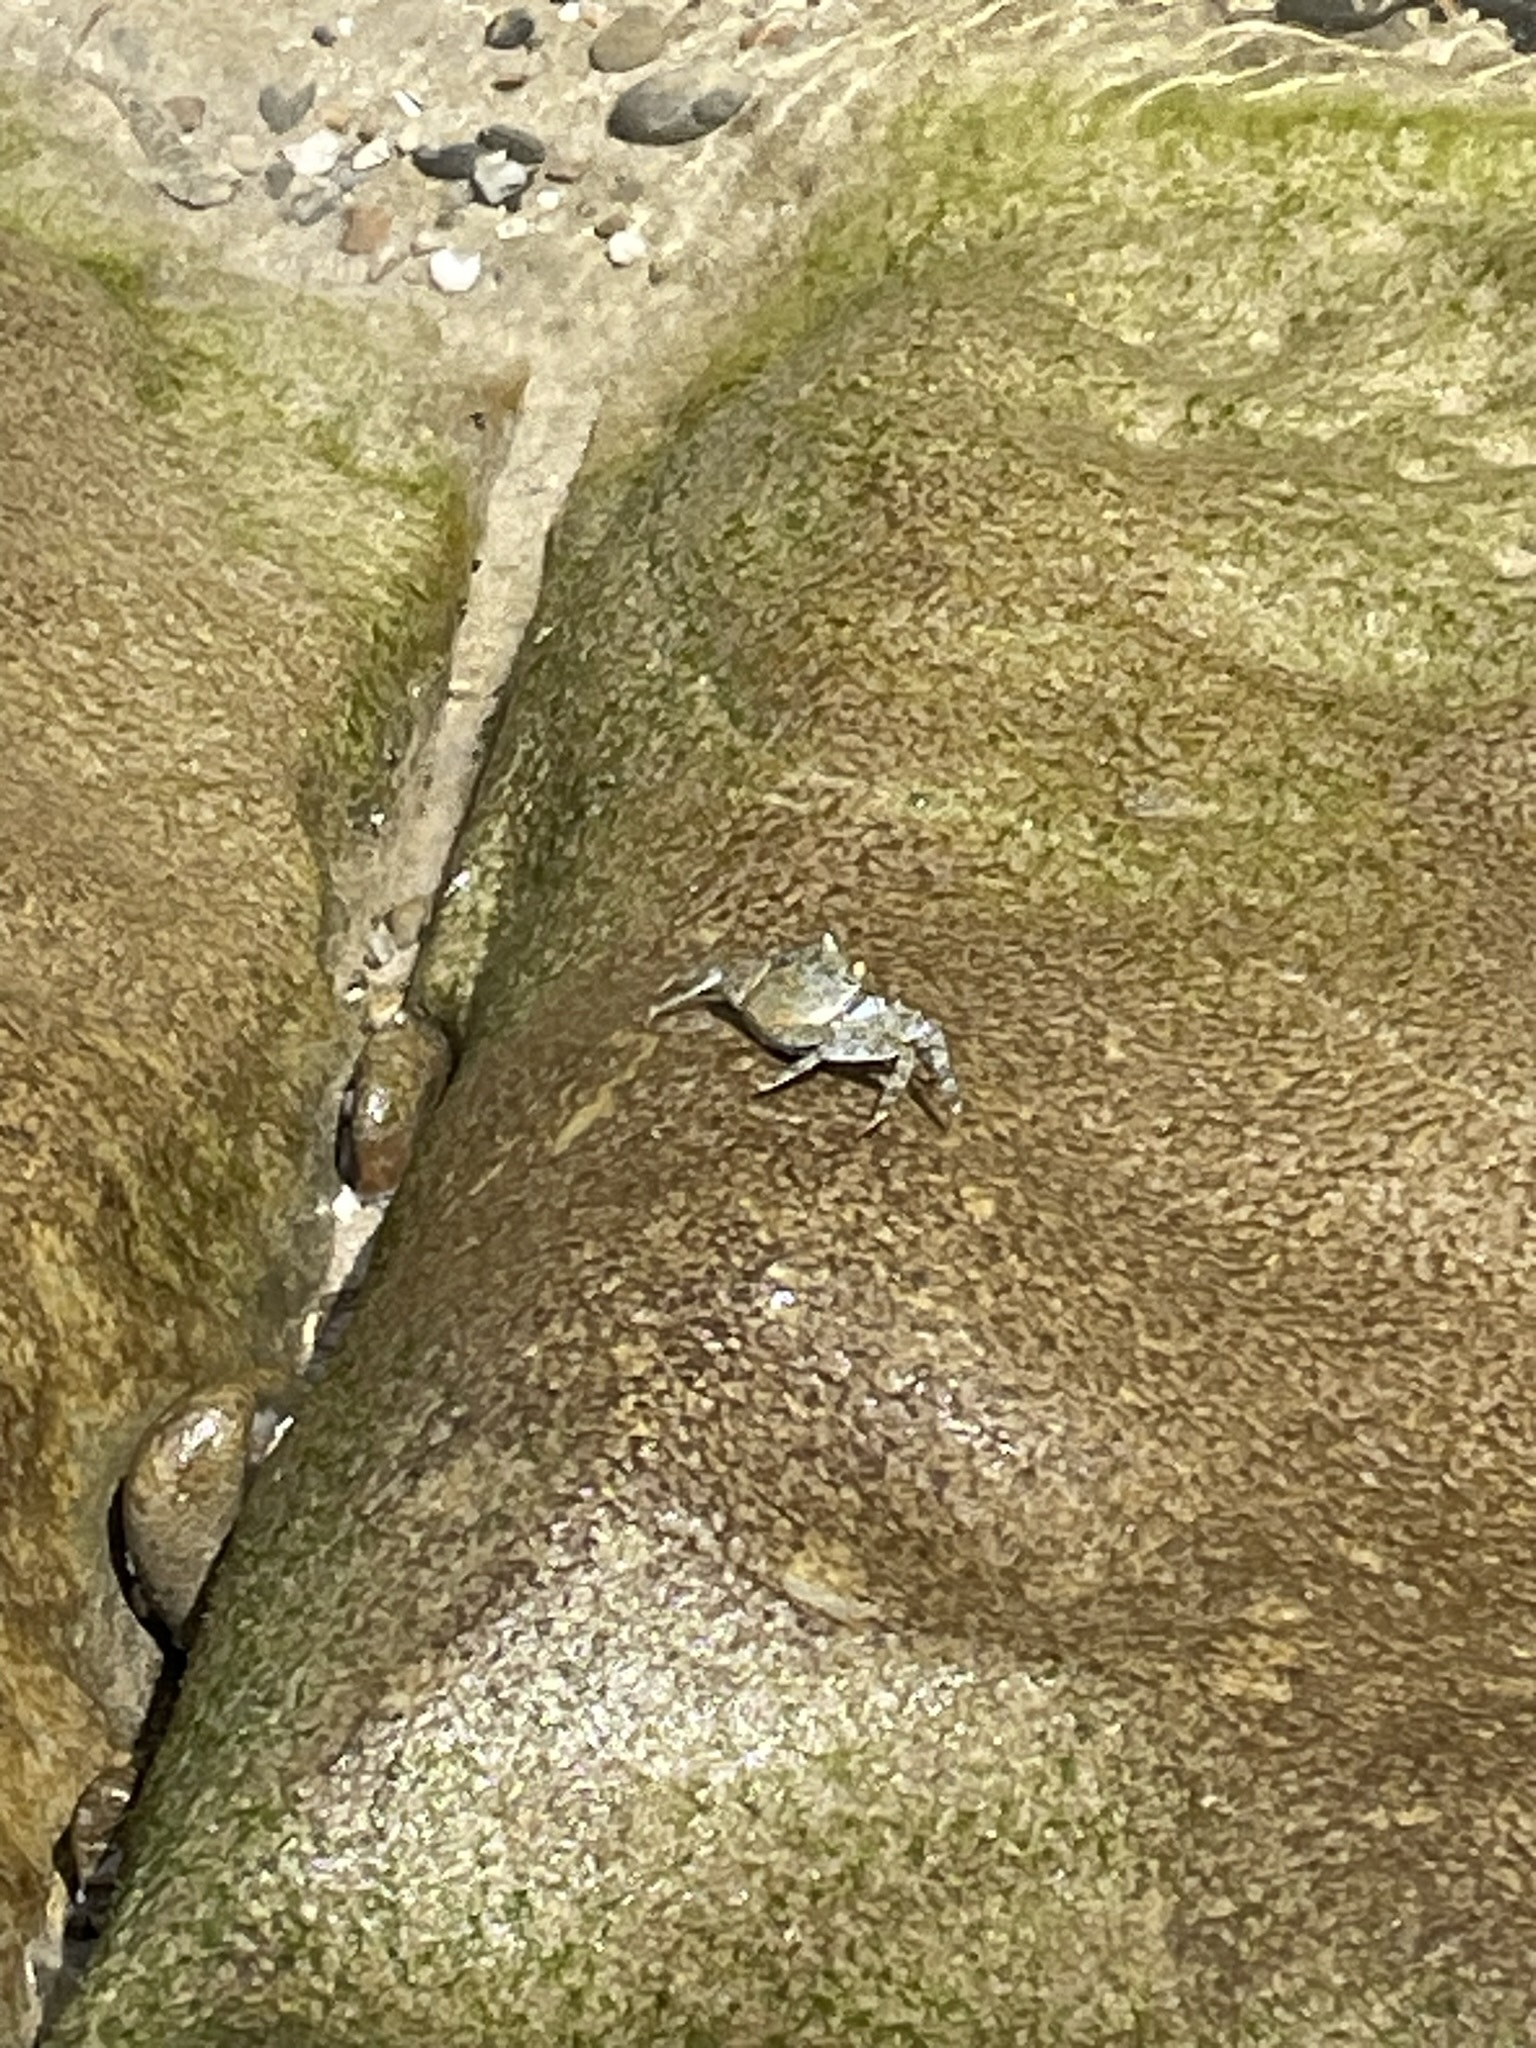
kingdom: Animalia
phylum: Arthropoda
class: Malacostraca
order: Decapoda
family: Grapsidae
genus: Grapsus
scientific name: Grapsus grapsus
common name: Sally lightfoot
